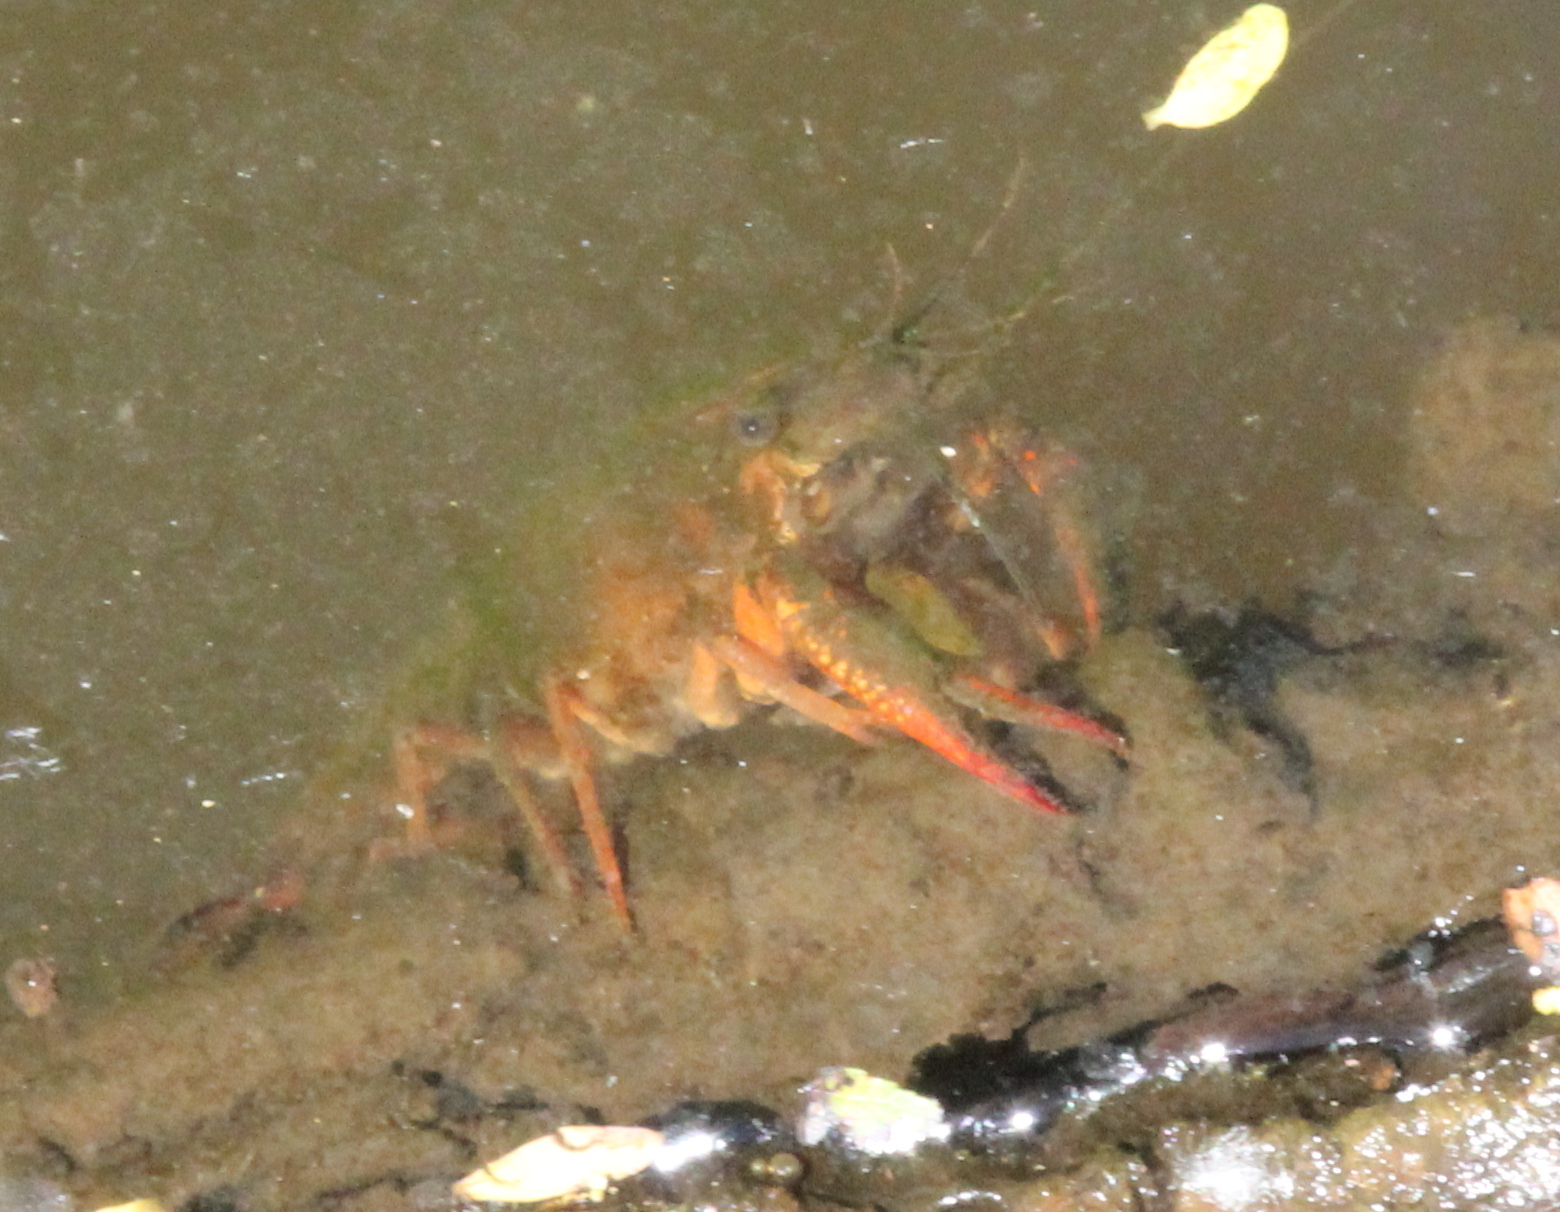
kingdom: Animalia
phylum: Arthropoda
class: Malacostraca
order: Decapoda
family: Cambaridae
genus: Procambarus
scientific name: Procambarus clarkii
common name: Red swamp crayfish
